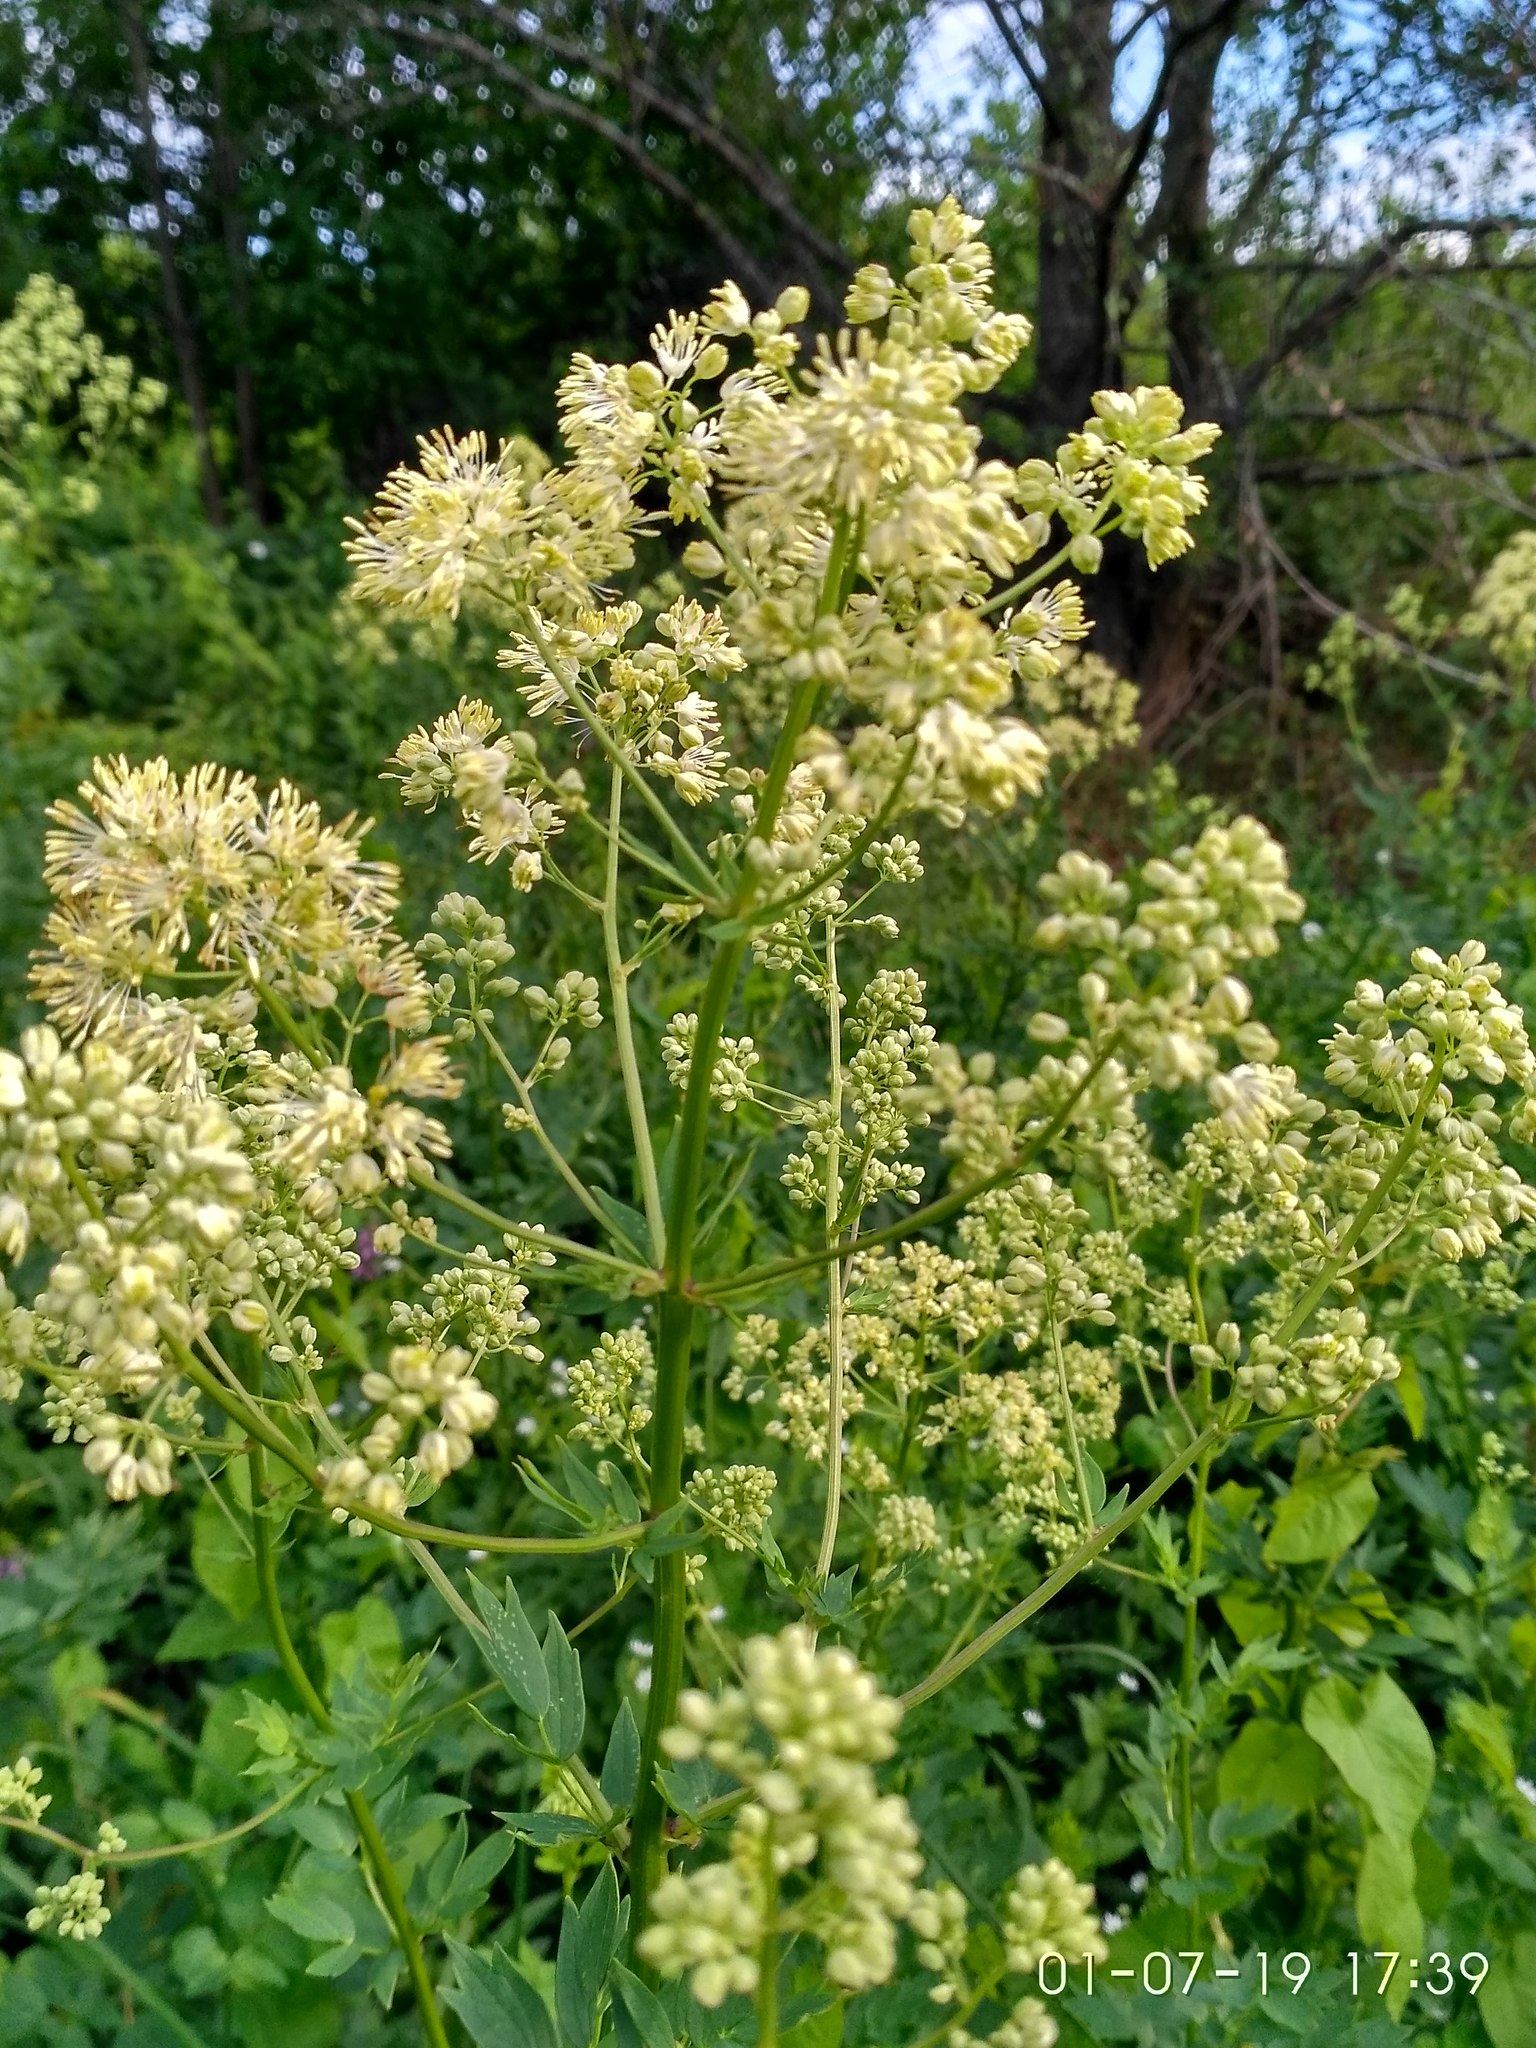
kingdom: Plantae
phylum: Tracheophyta
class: Magnoliopsida
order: Ranunculales
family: Ranunculaceae
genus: Thalictrum
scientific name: Thalictrum flavum
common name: Common meadow-rue
